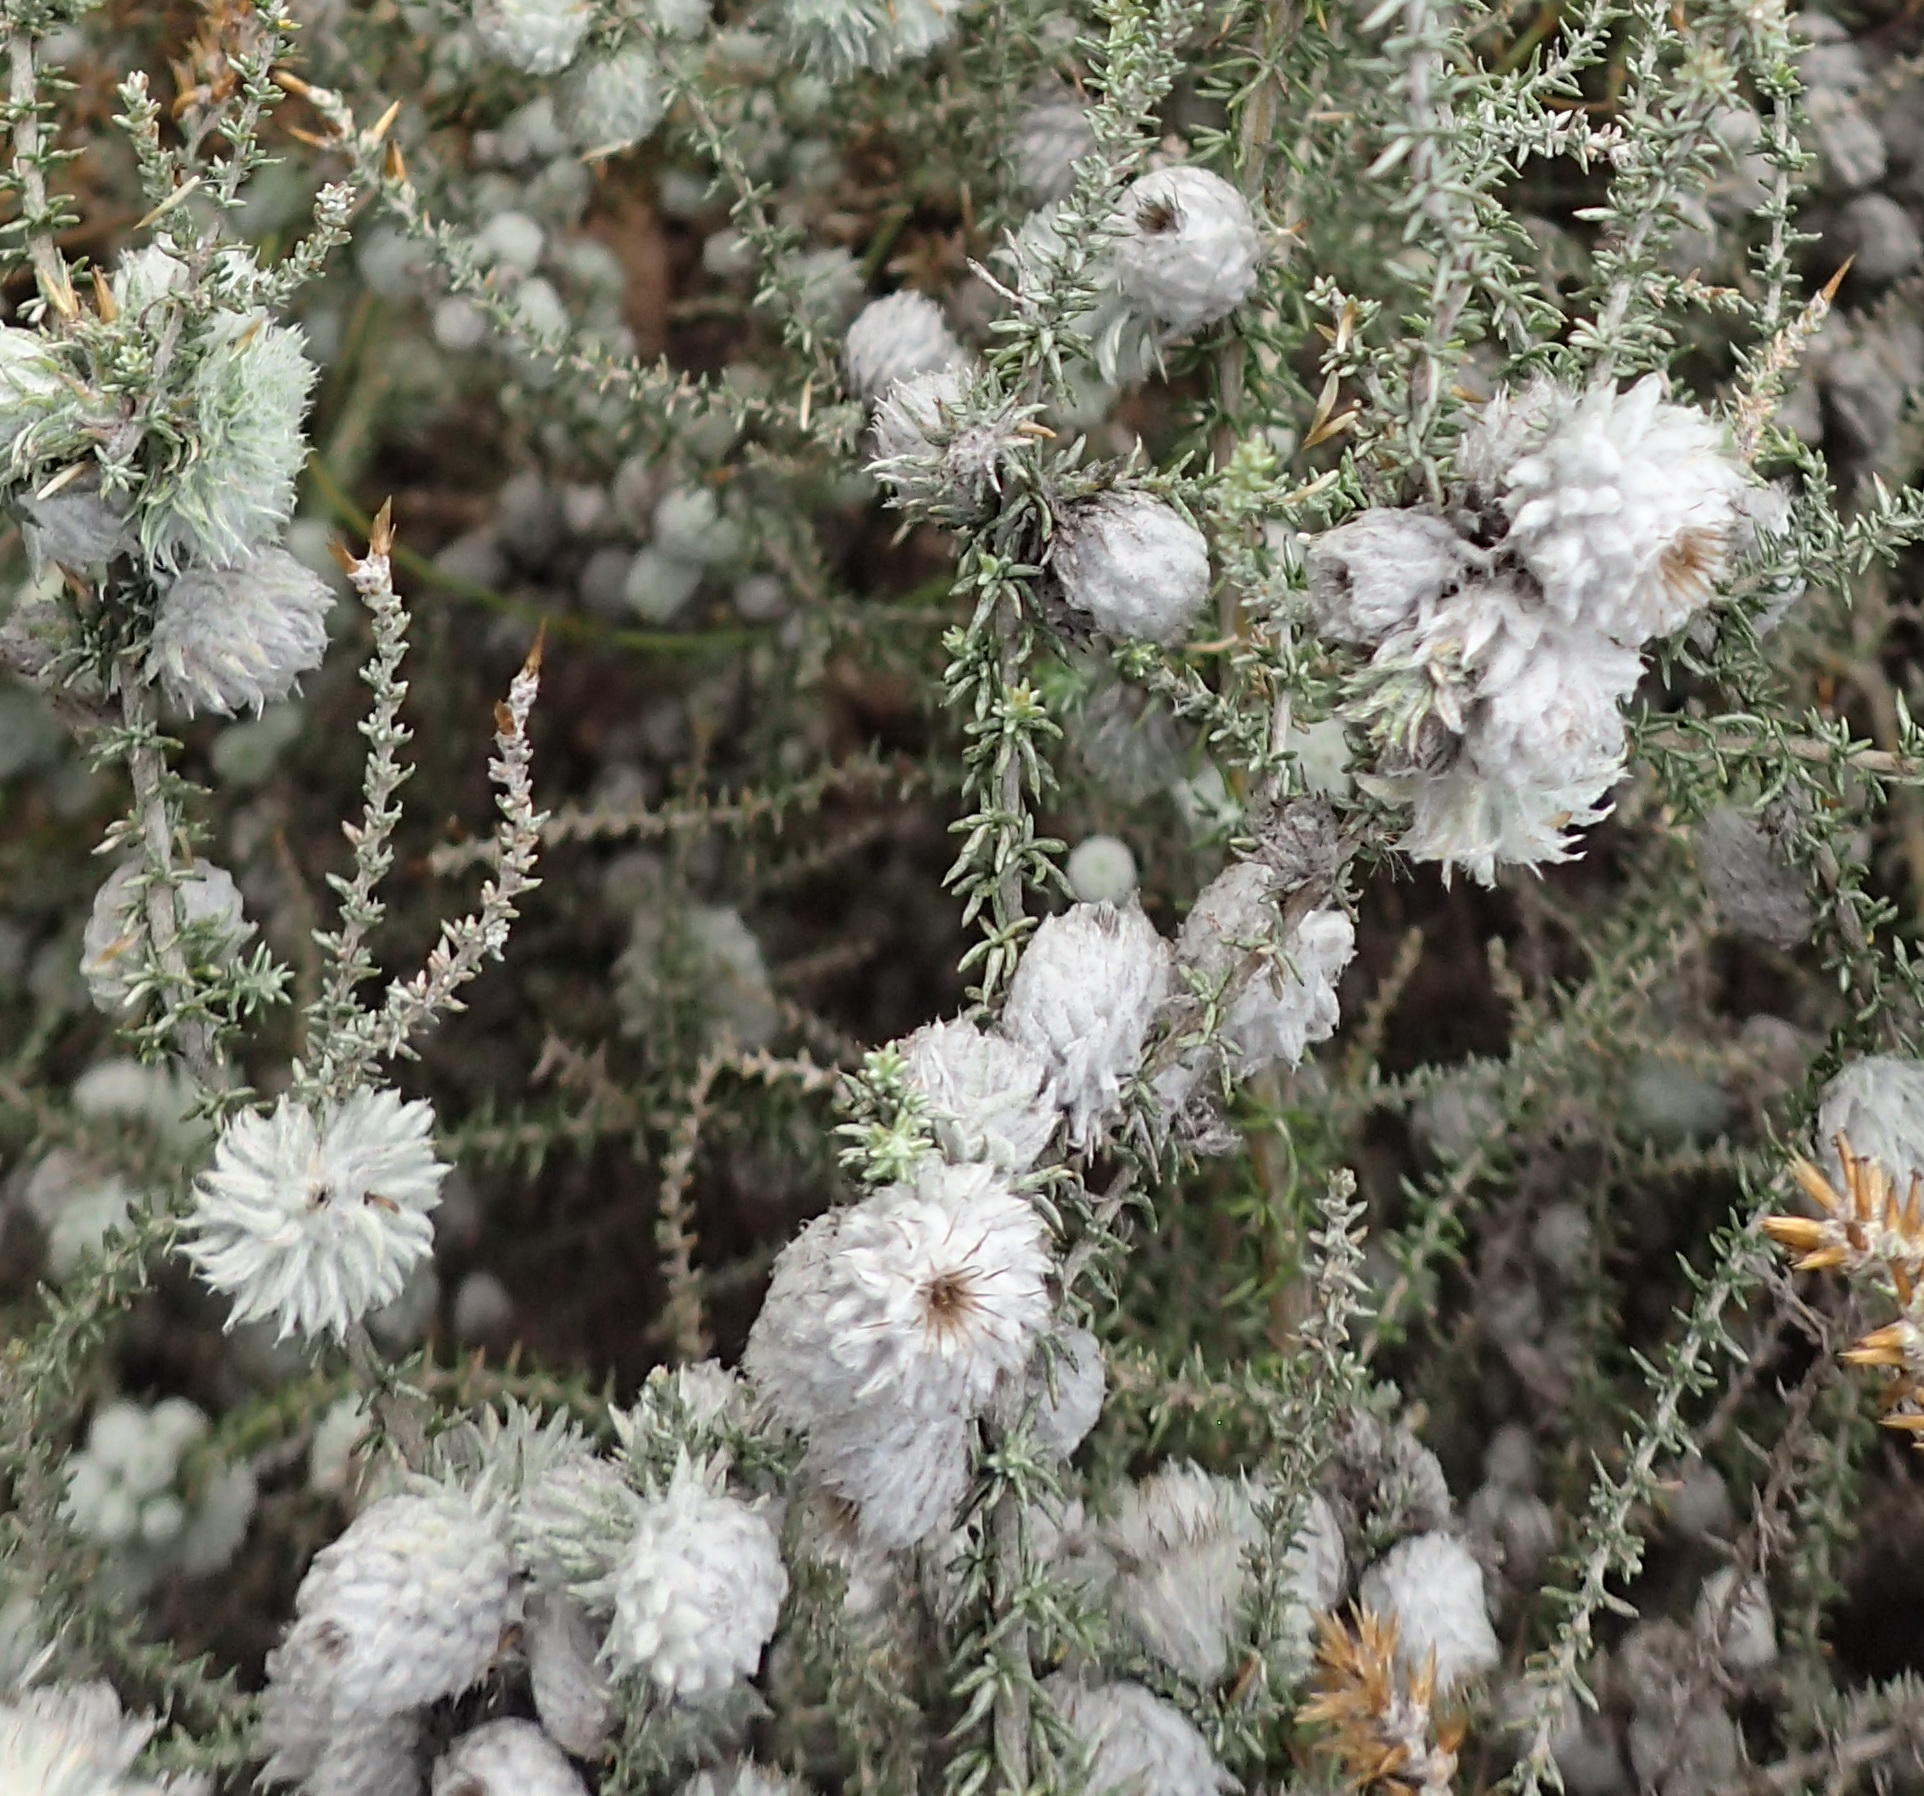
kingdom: Animalia
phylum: Arthropoda
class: Insecta
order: Diptera
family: Cecidomyiidae
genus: Schizomyia
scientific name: Schizomyia scheppigi
